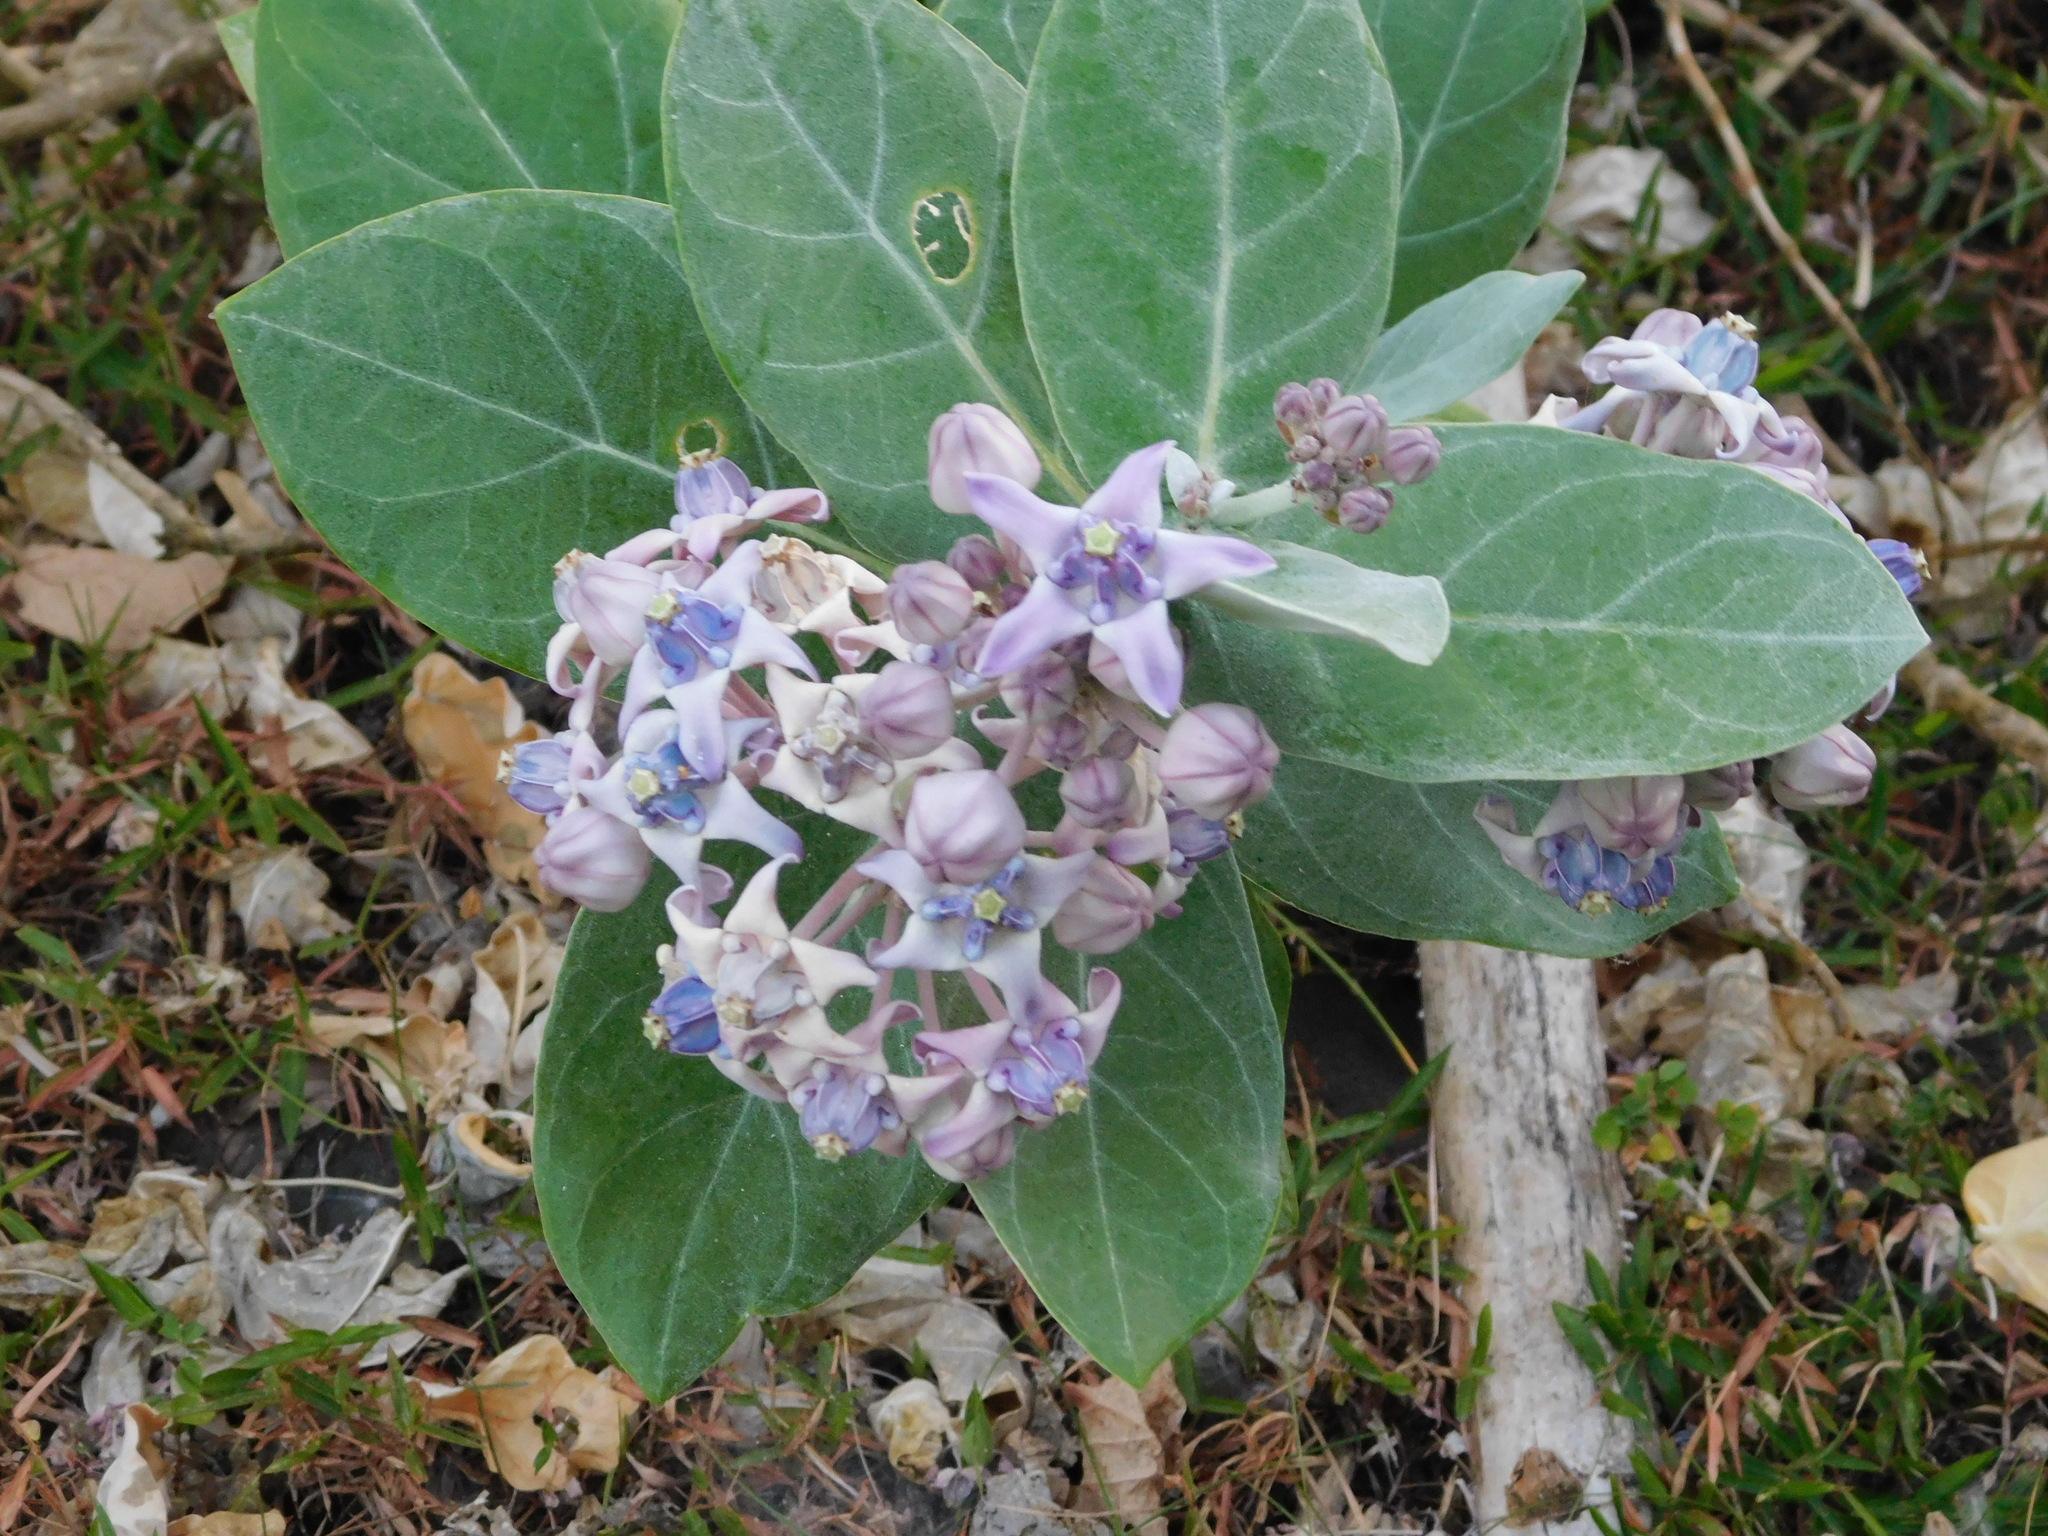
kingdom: Plantae
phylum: Tracheophyta
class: Magnoliopsida
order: Gentianales
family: Apocynaceae
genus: Calotropis
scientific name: Calotropis gigantea
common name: Crown flower
